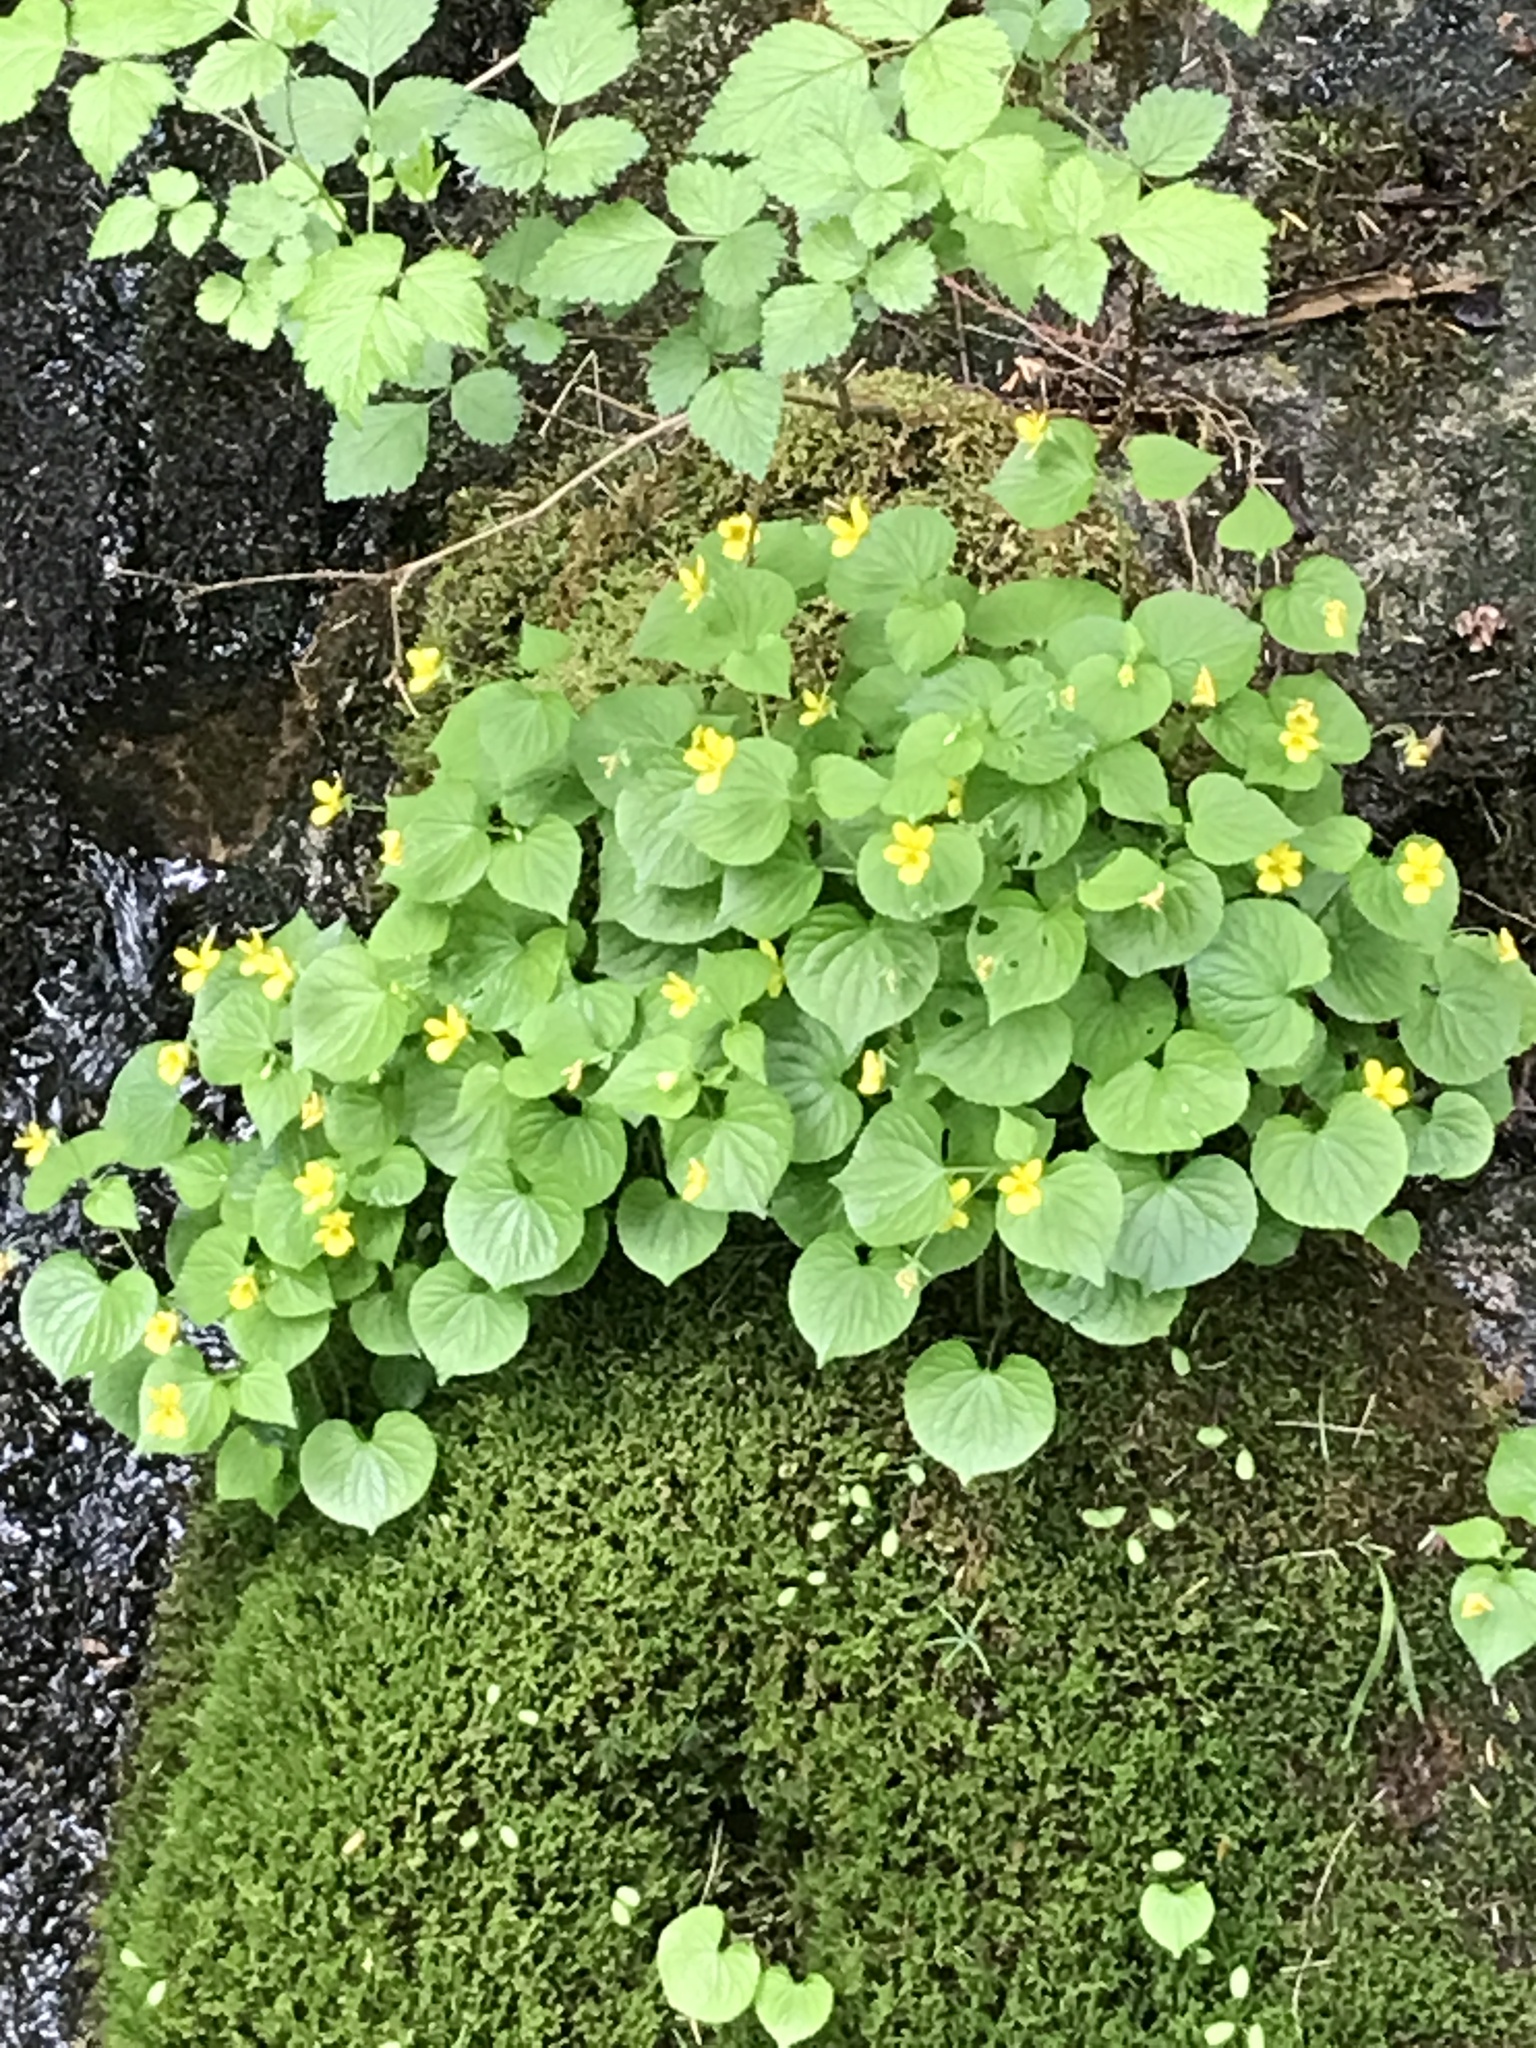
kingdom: Plantae
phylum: Tracheophyta
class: Magnoliopsida
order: Malpighiales
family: Violaceae
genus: Viola
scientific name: Viola glabella
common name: Stream violet
